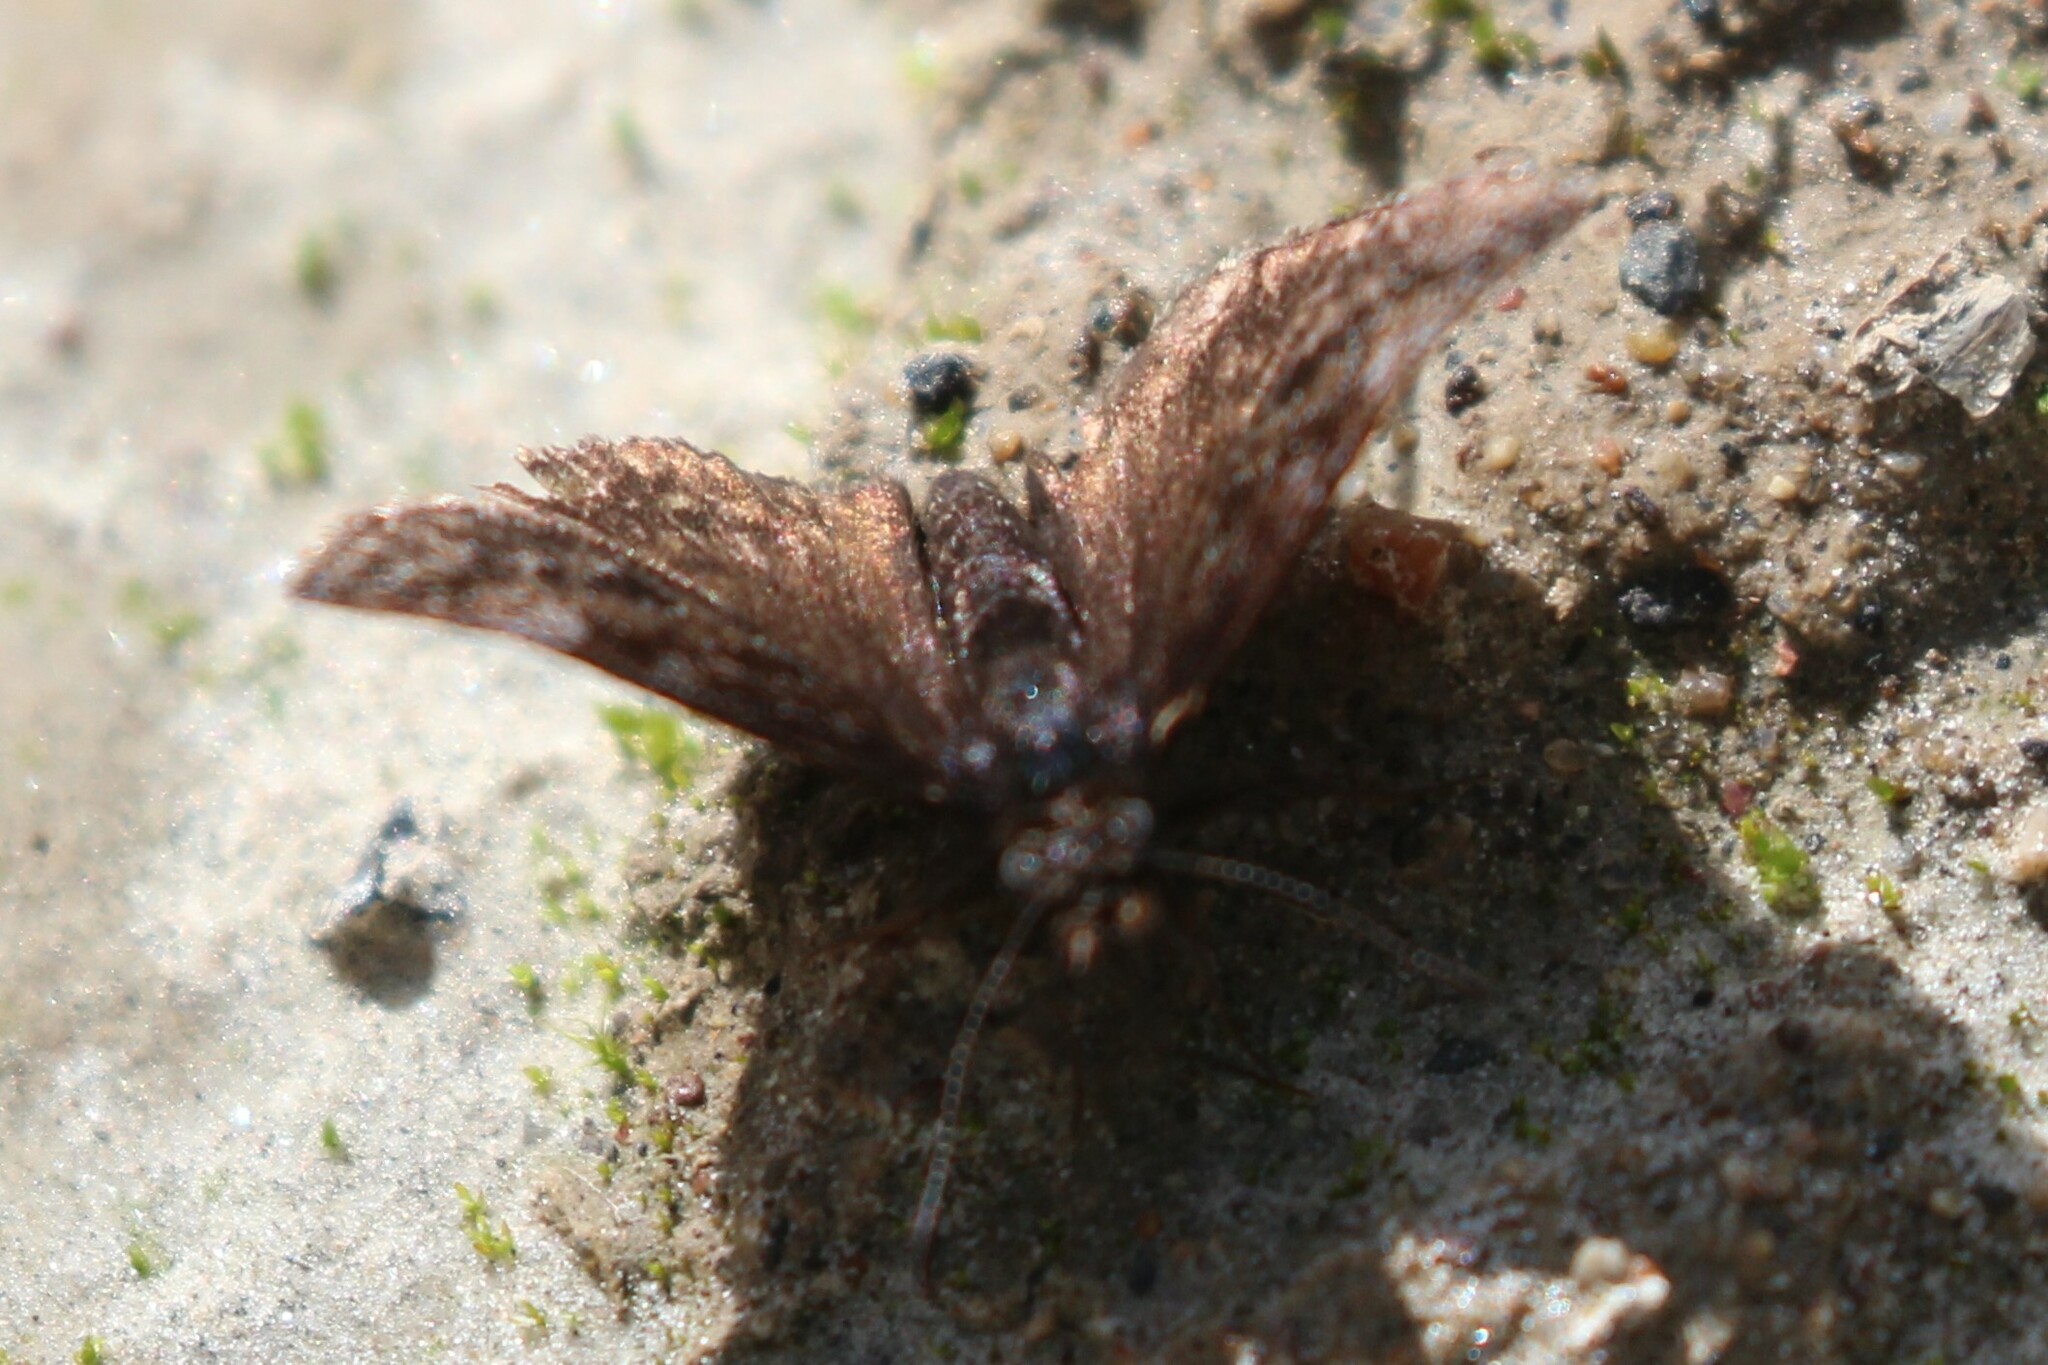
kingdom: Animalia
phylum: Arthropoda
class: Insecta
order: Lepidoptera
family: Hesperiidae
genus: Erynnis
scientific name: Erynnis icelus
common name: Dreamy duskywing
